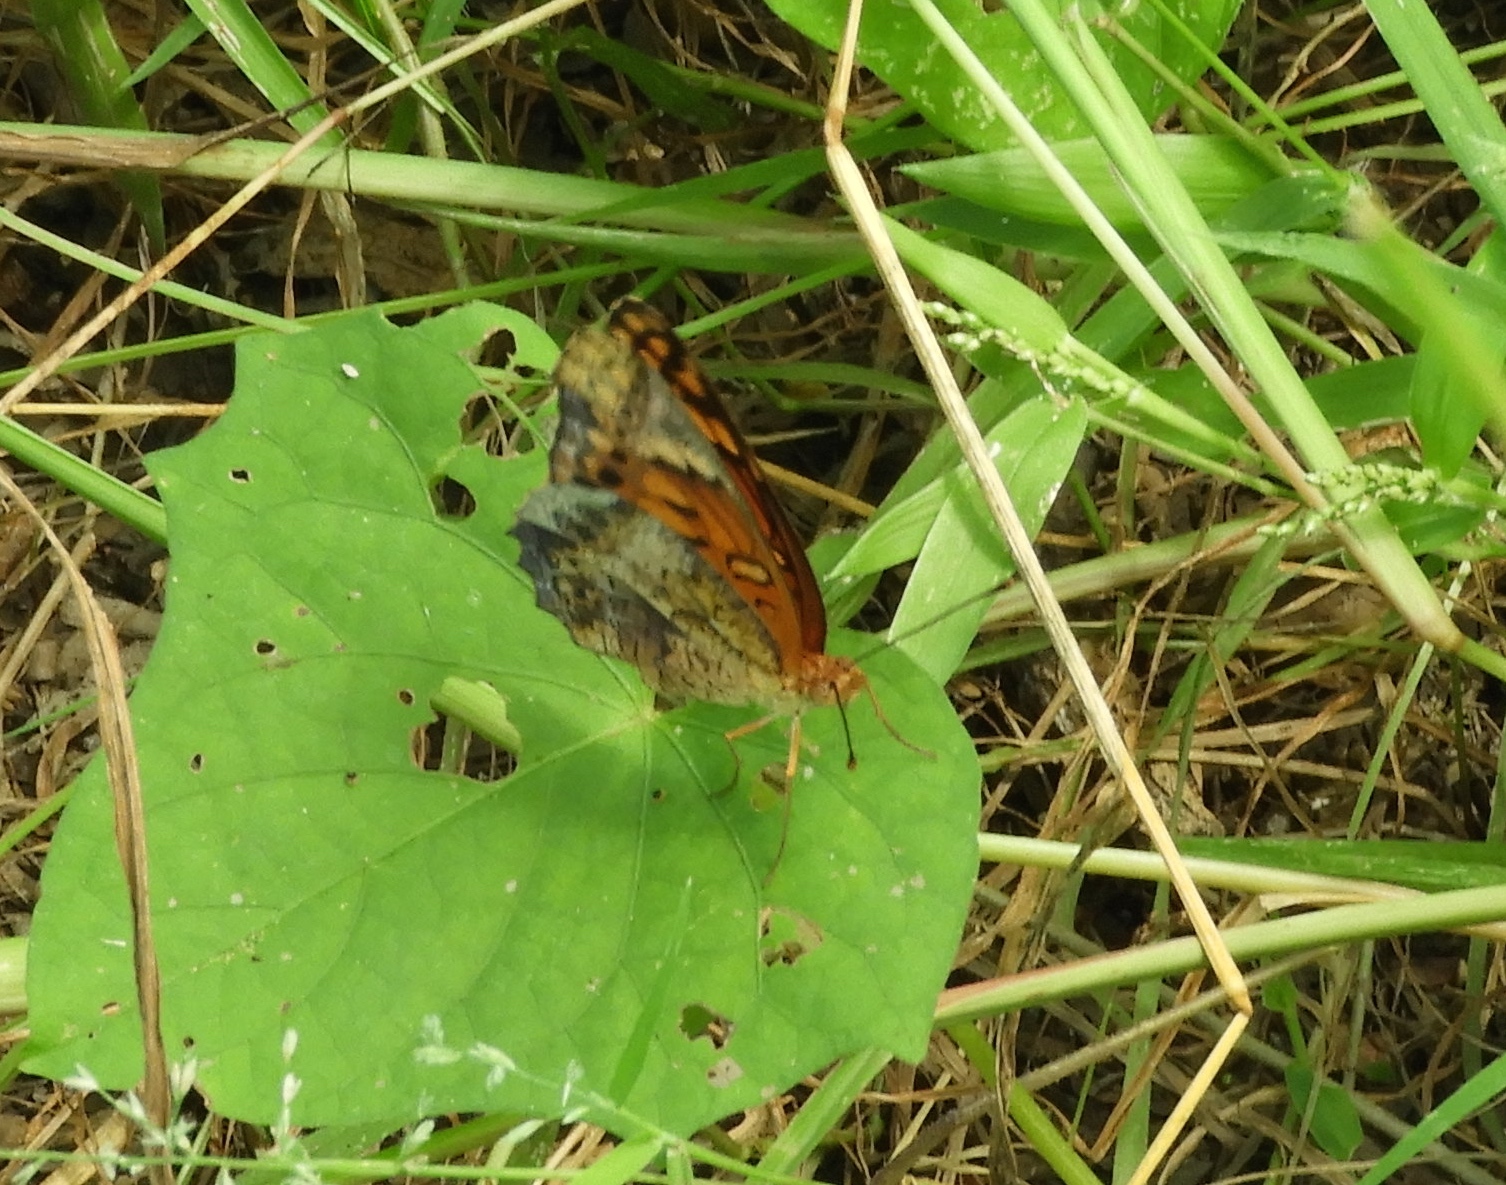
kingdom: Animalia
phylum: Arthropoda
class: Insecta
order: Lepidoptera
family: Nymphalidae
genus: Euptoieta
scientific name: Euptoieta hegesia
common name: Mexican fritillary
